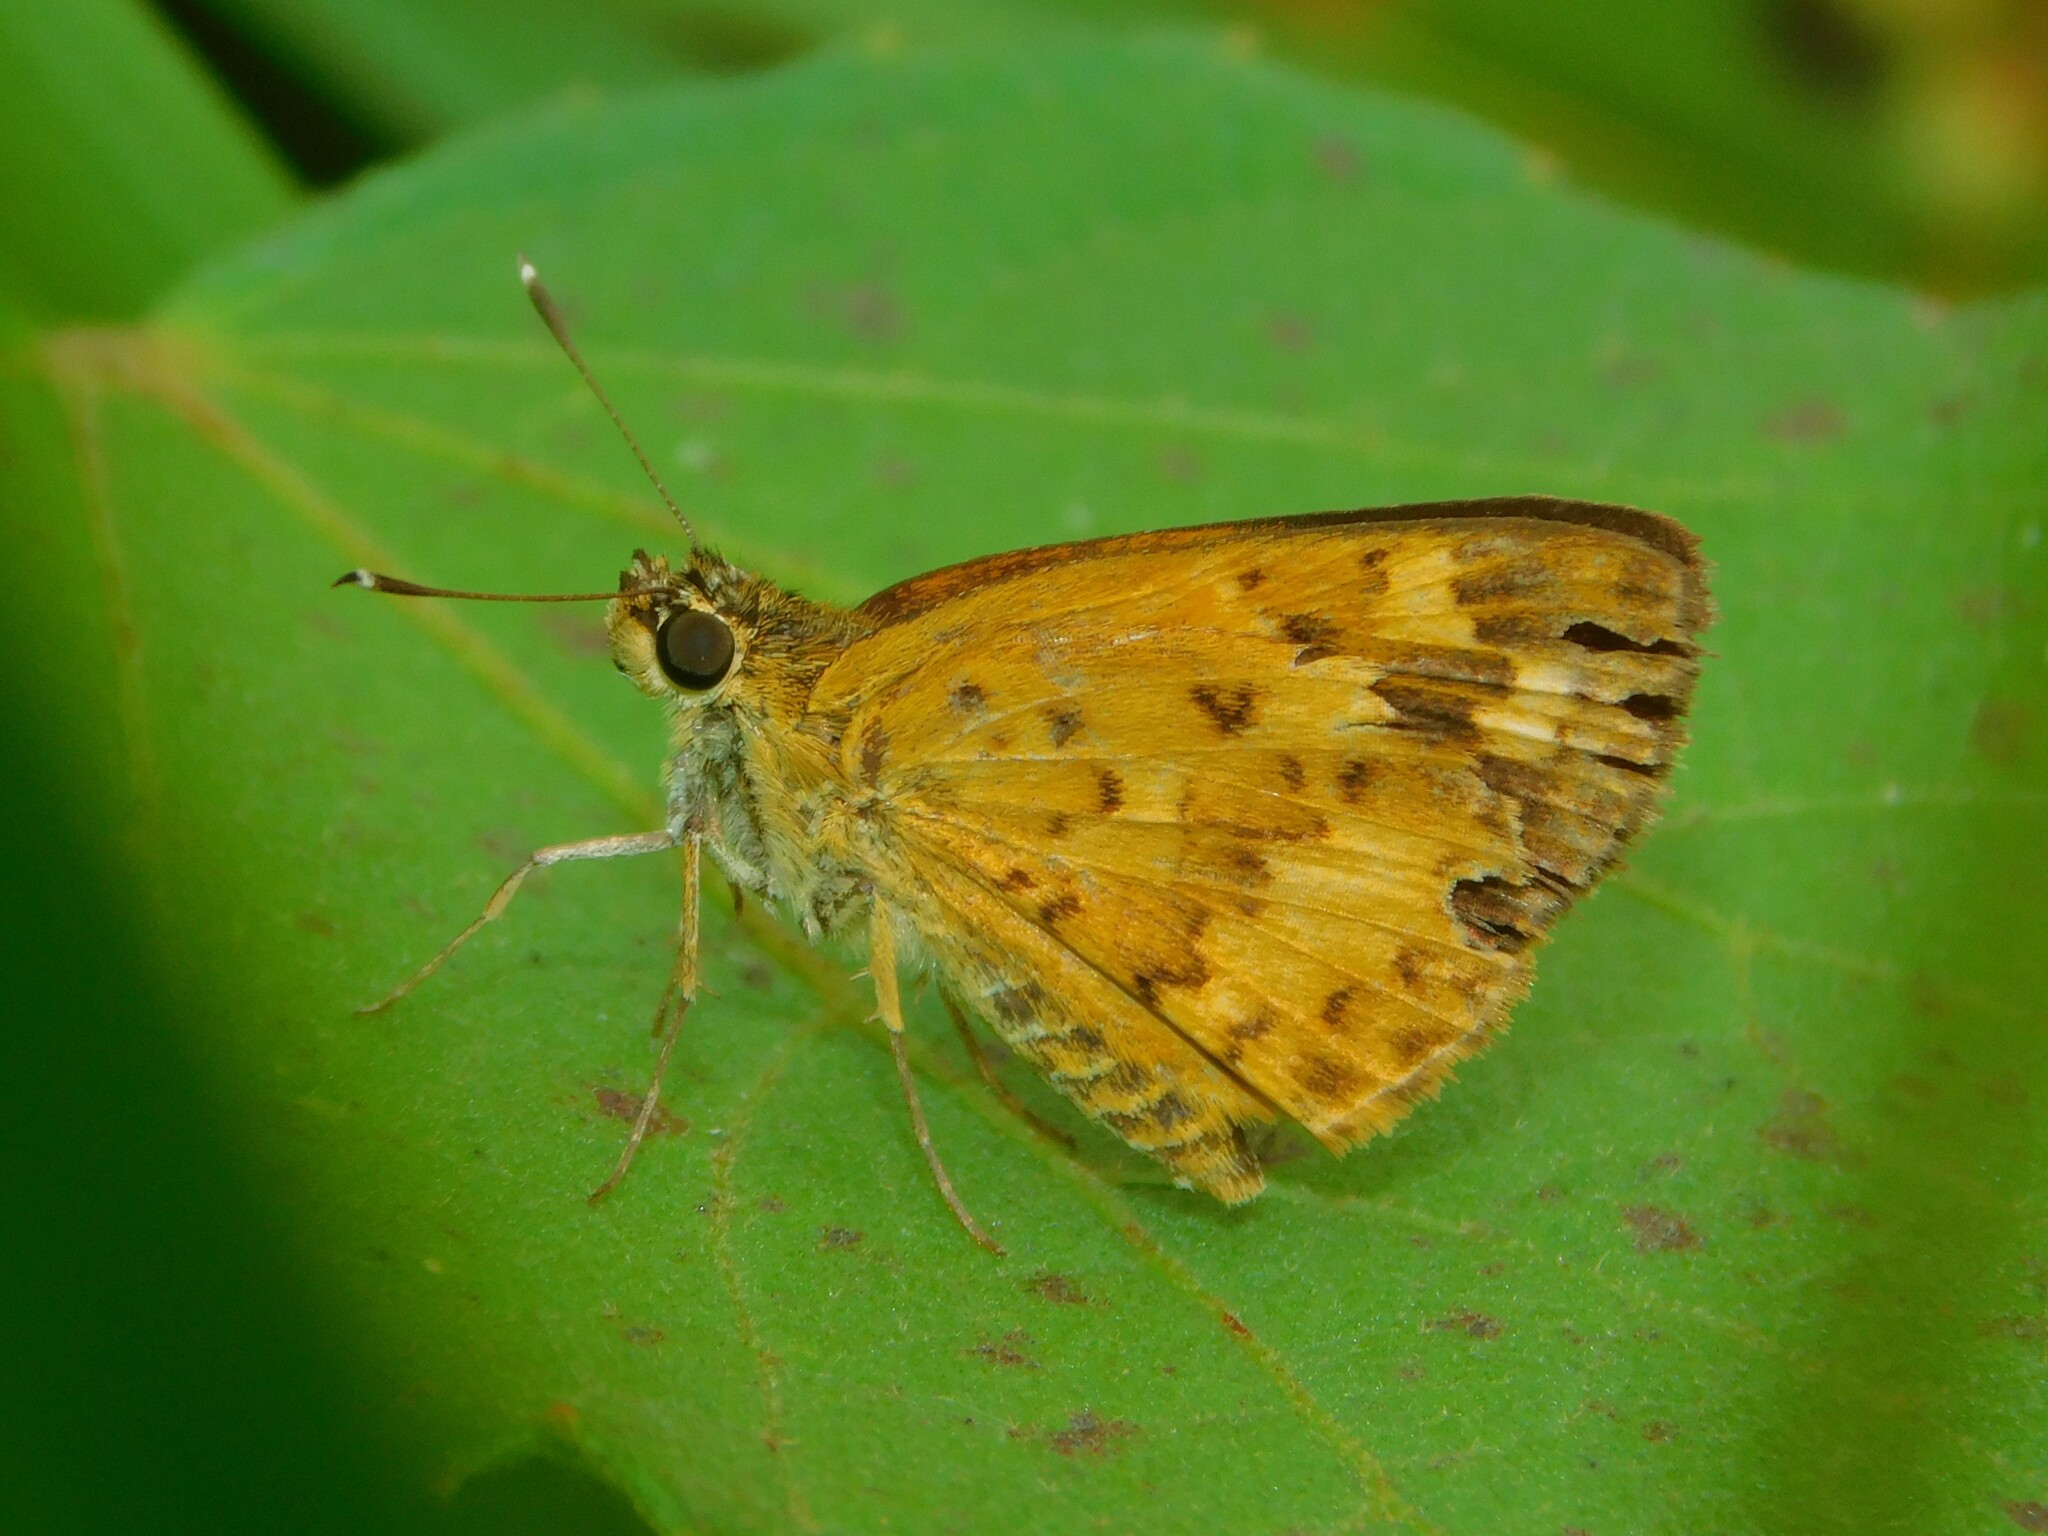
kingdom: Animalia
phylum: Arthropoda
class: Insecta
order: Lepidoptera
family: Hesperiidae
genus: Pardaleodes
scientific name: Pardaleodes incerta
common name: Savanna pathfinder
